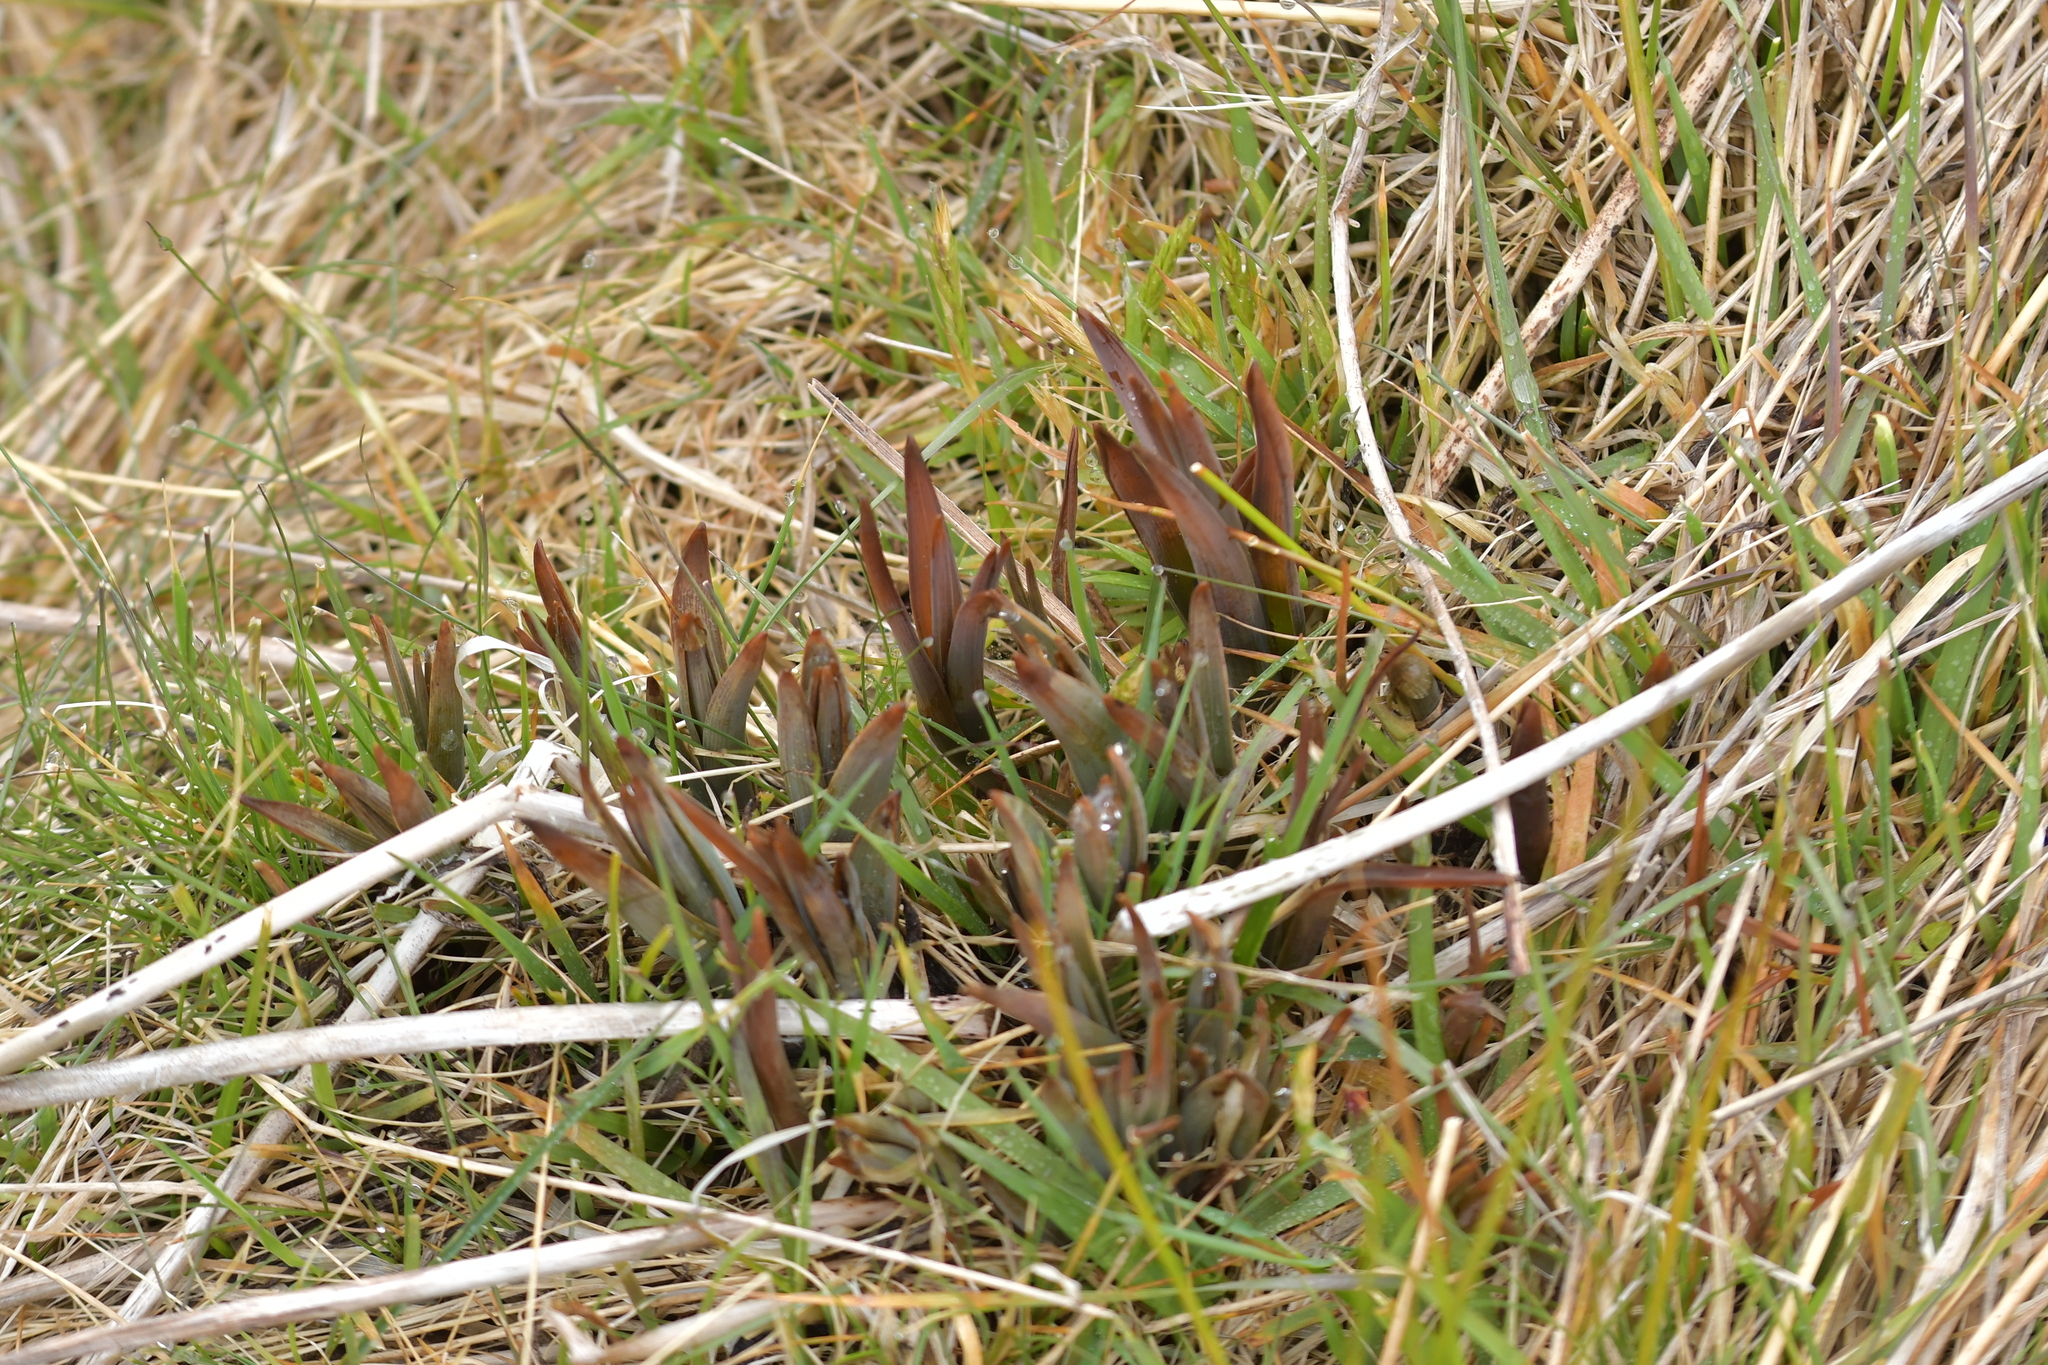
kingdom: Plantae
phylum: Tracheophyta
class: Liliopsida
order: Asparagales
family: Asphodelaceae
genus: Bulbinella
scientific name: Bulbinella hookeri
